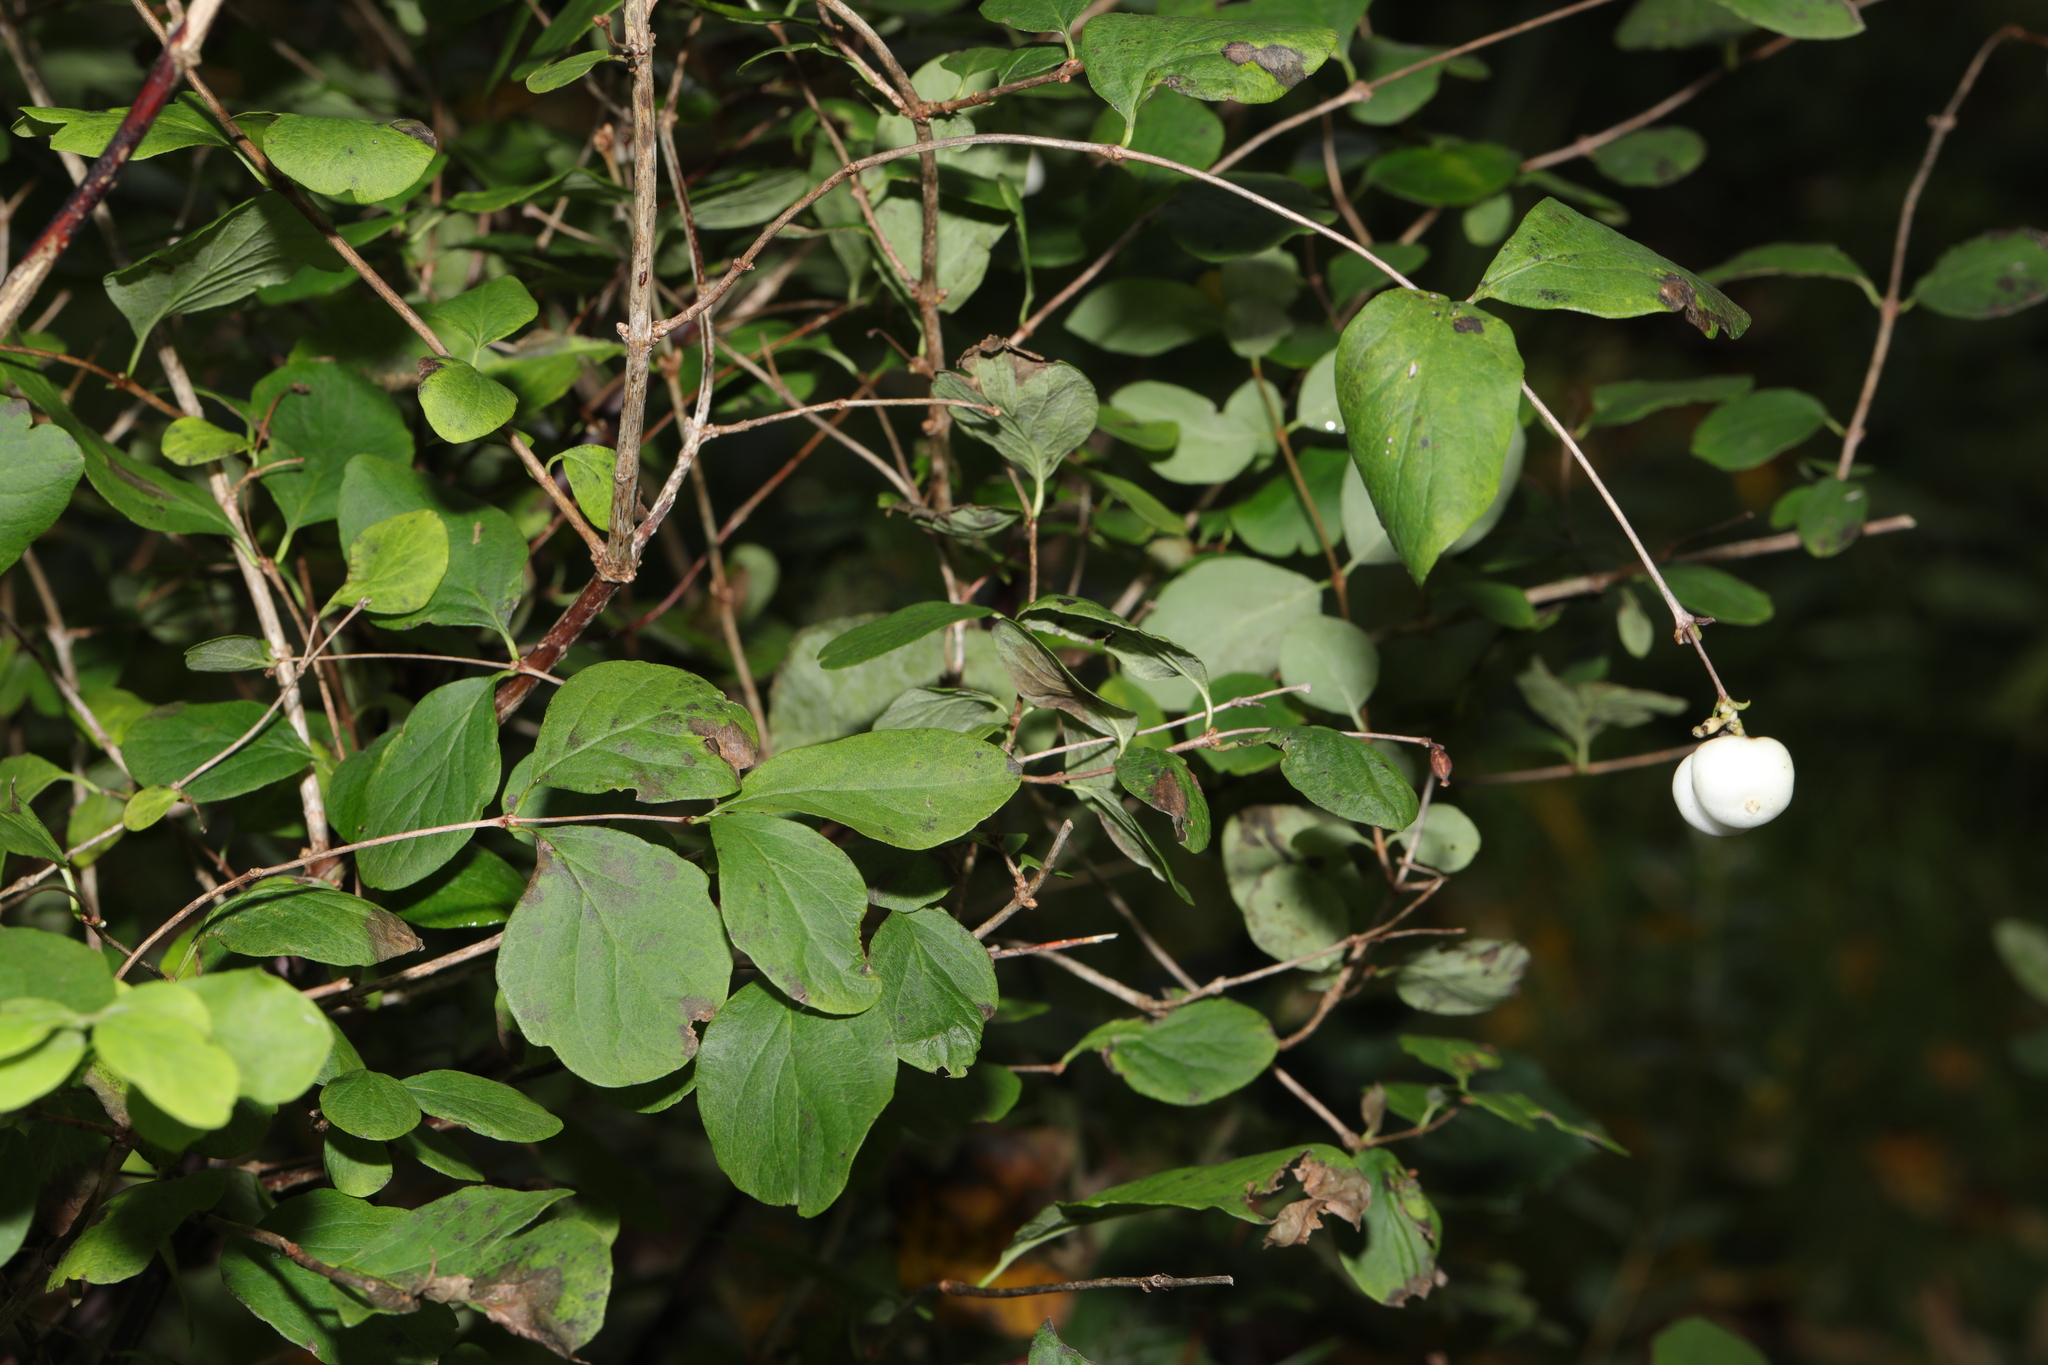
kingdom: Plantae
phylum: Tracheophyta
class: Magnoliopsida
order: Dipsacales
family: Caprifoliaceae
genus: Symphoricarpos
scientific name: Symphoricarpos albus
